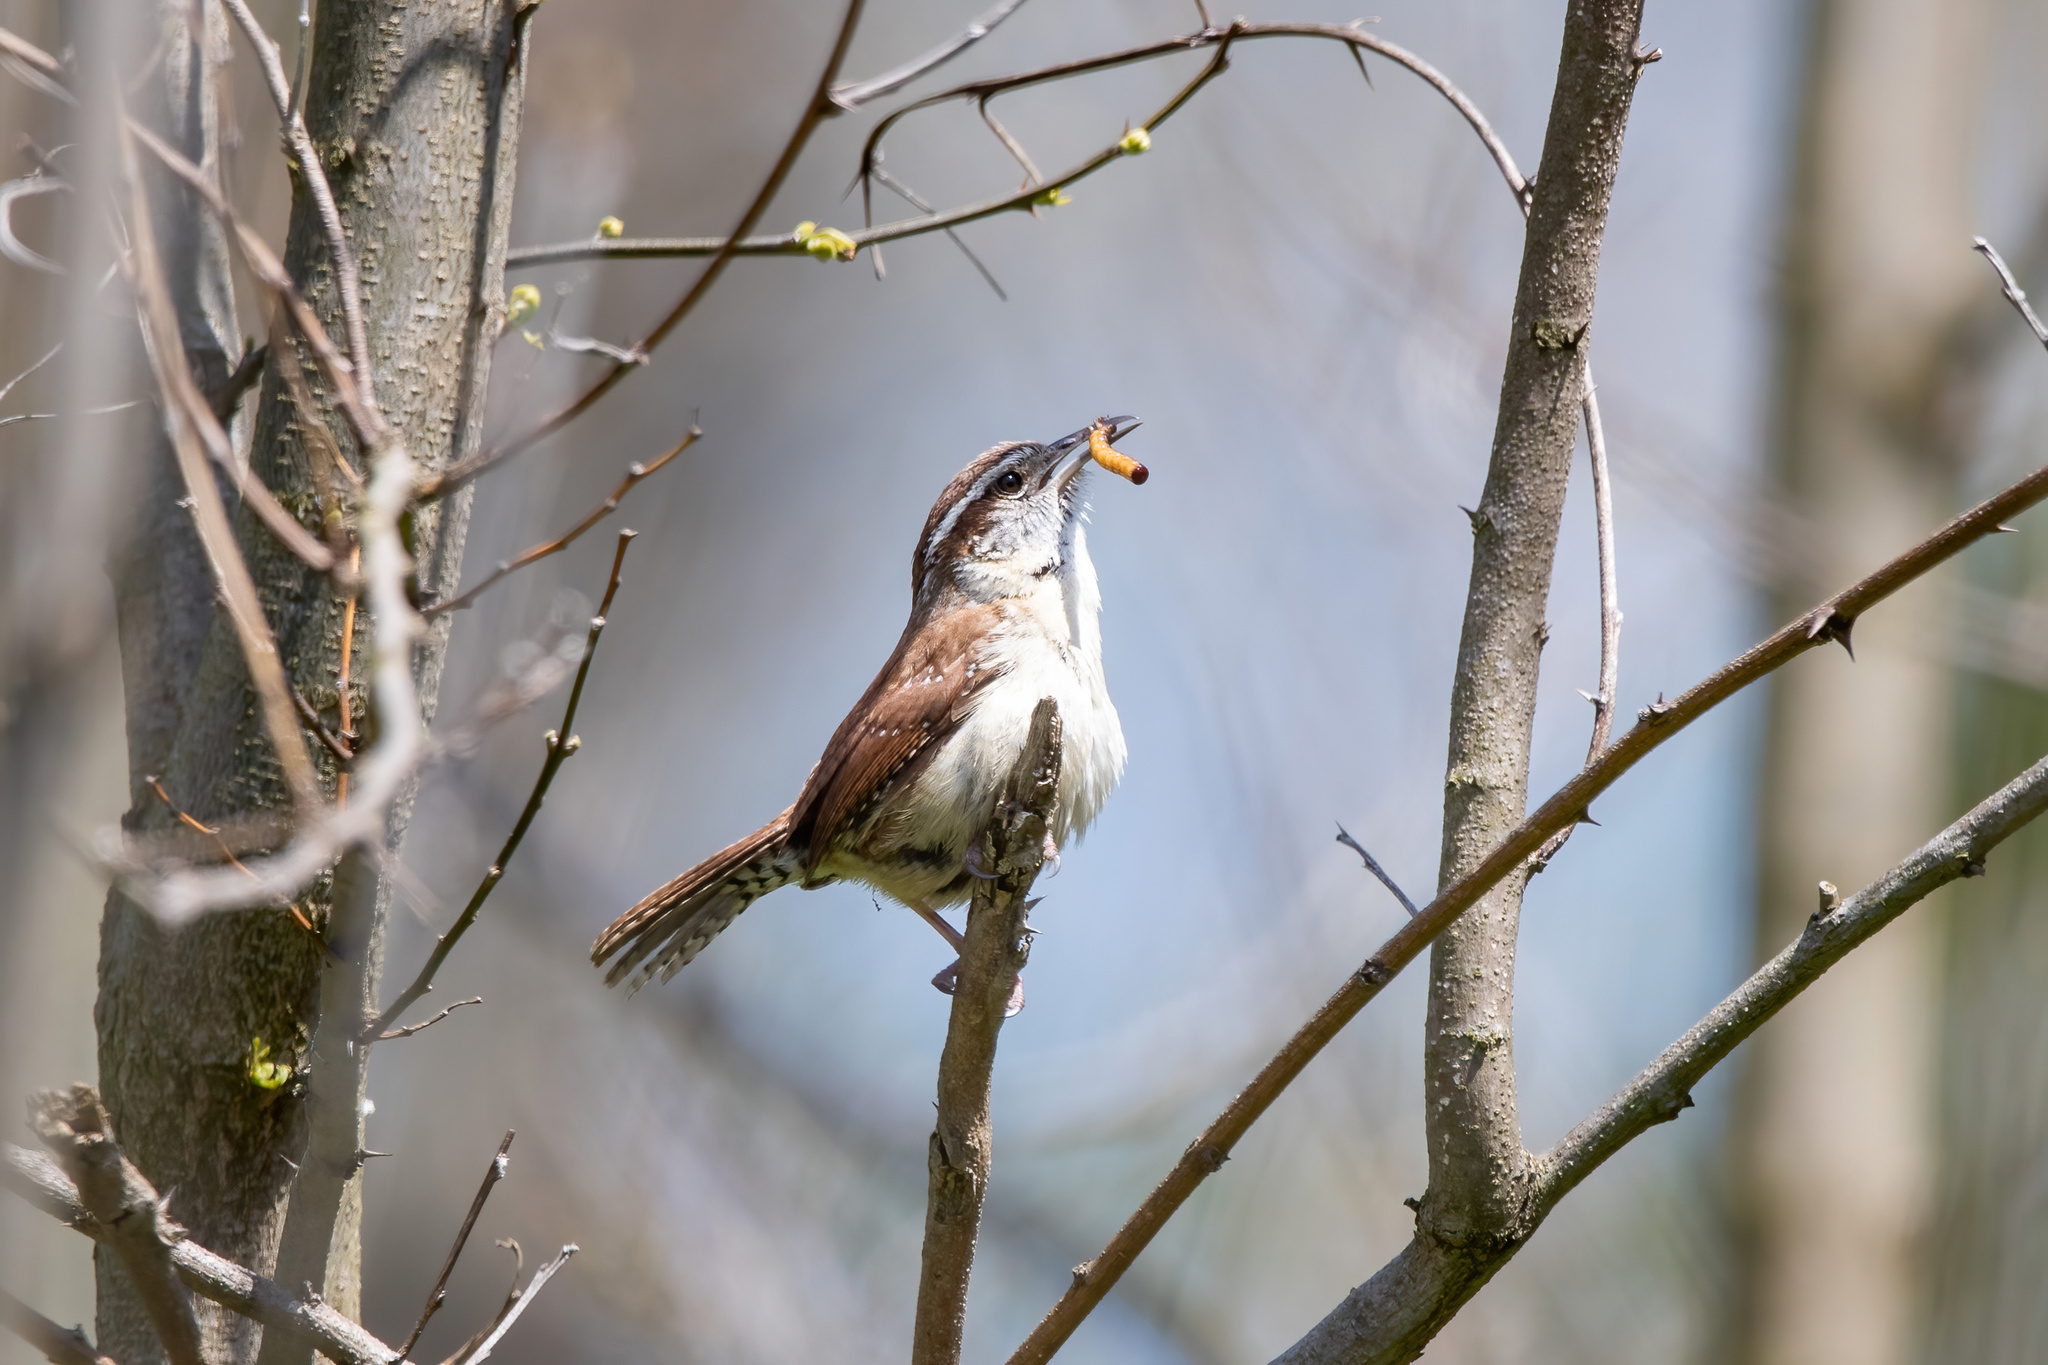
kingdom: Animalia
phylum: Chordata
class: Aves
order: Passeriformes
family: Troglodytidae
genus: Thryothorus
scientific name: Thryothorus ludovicianus
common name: Carolina wren
